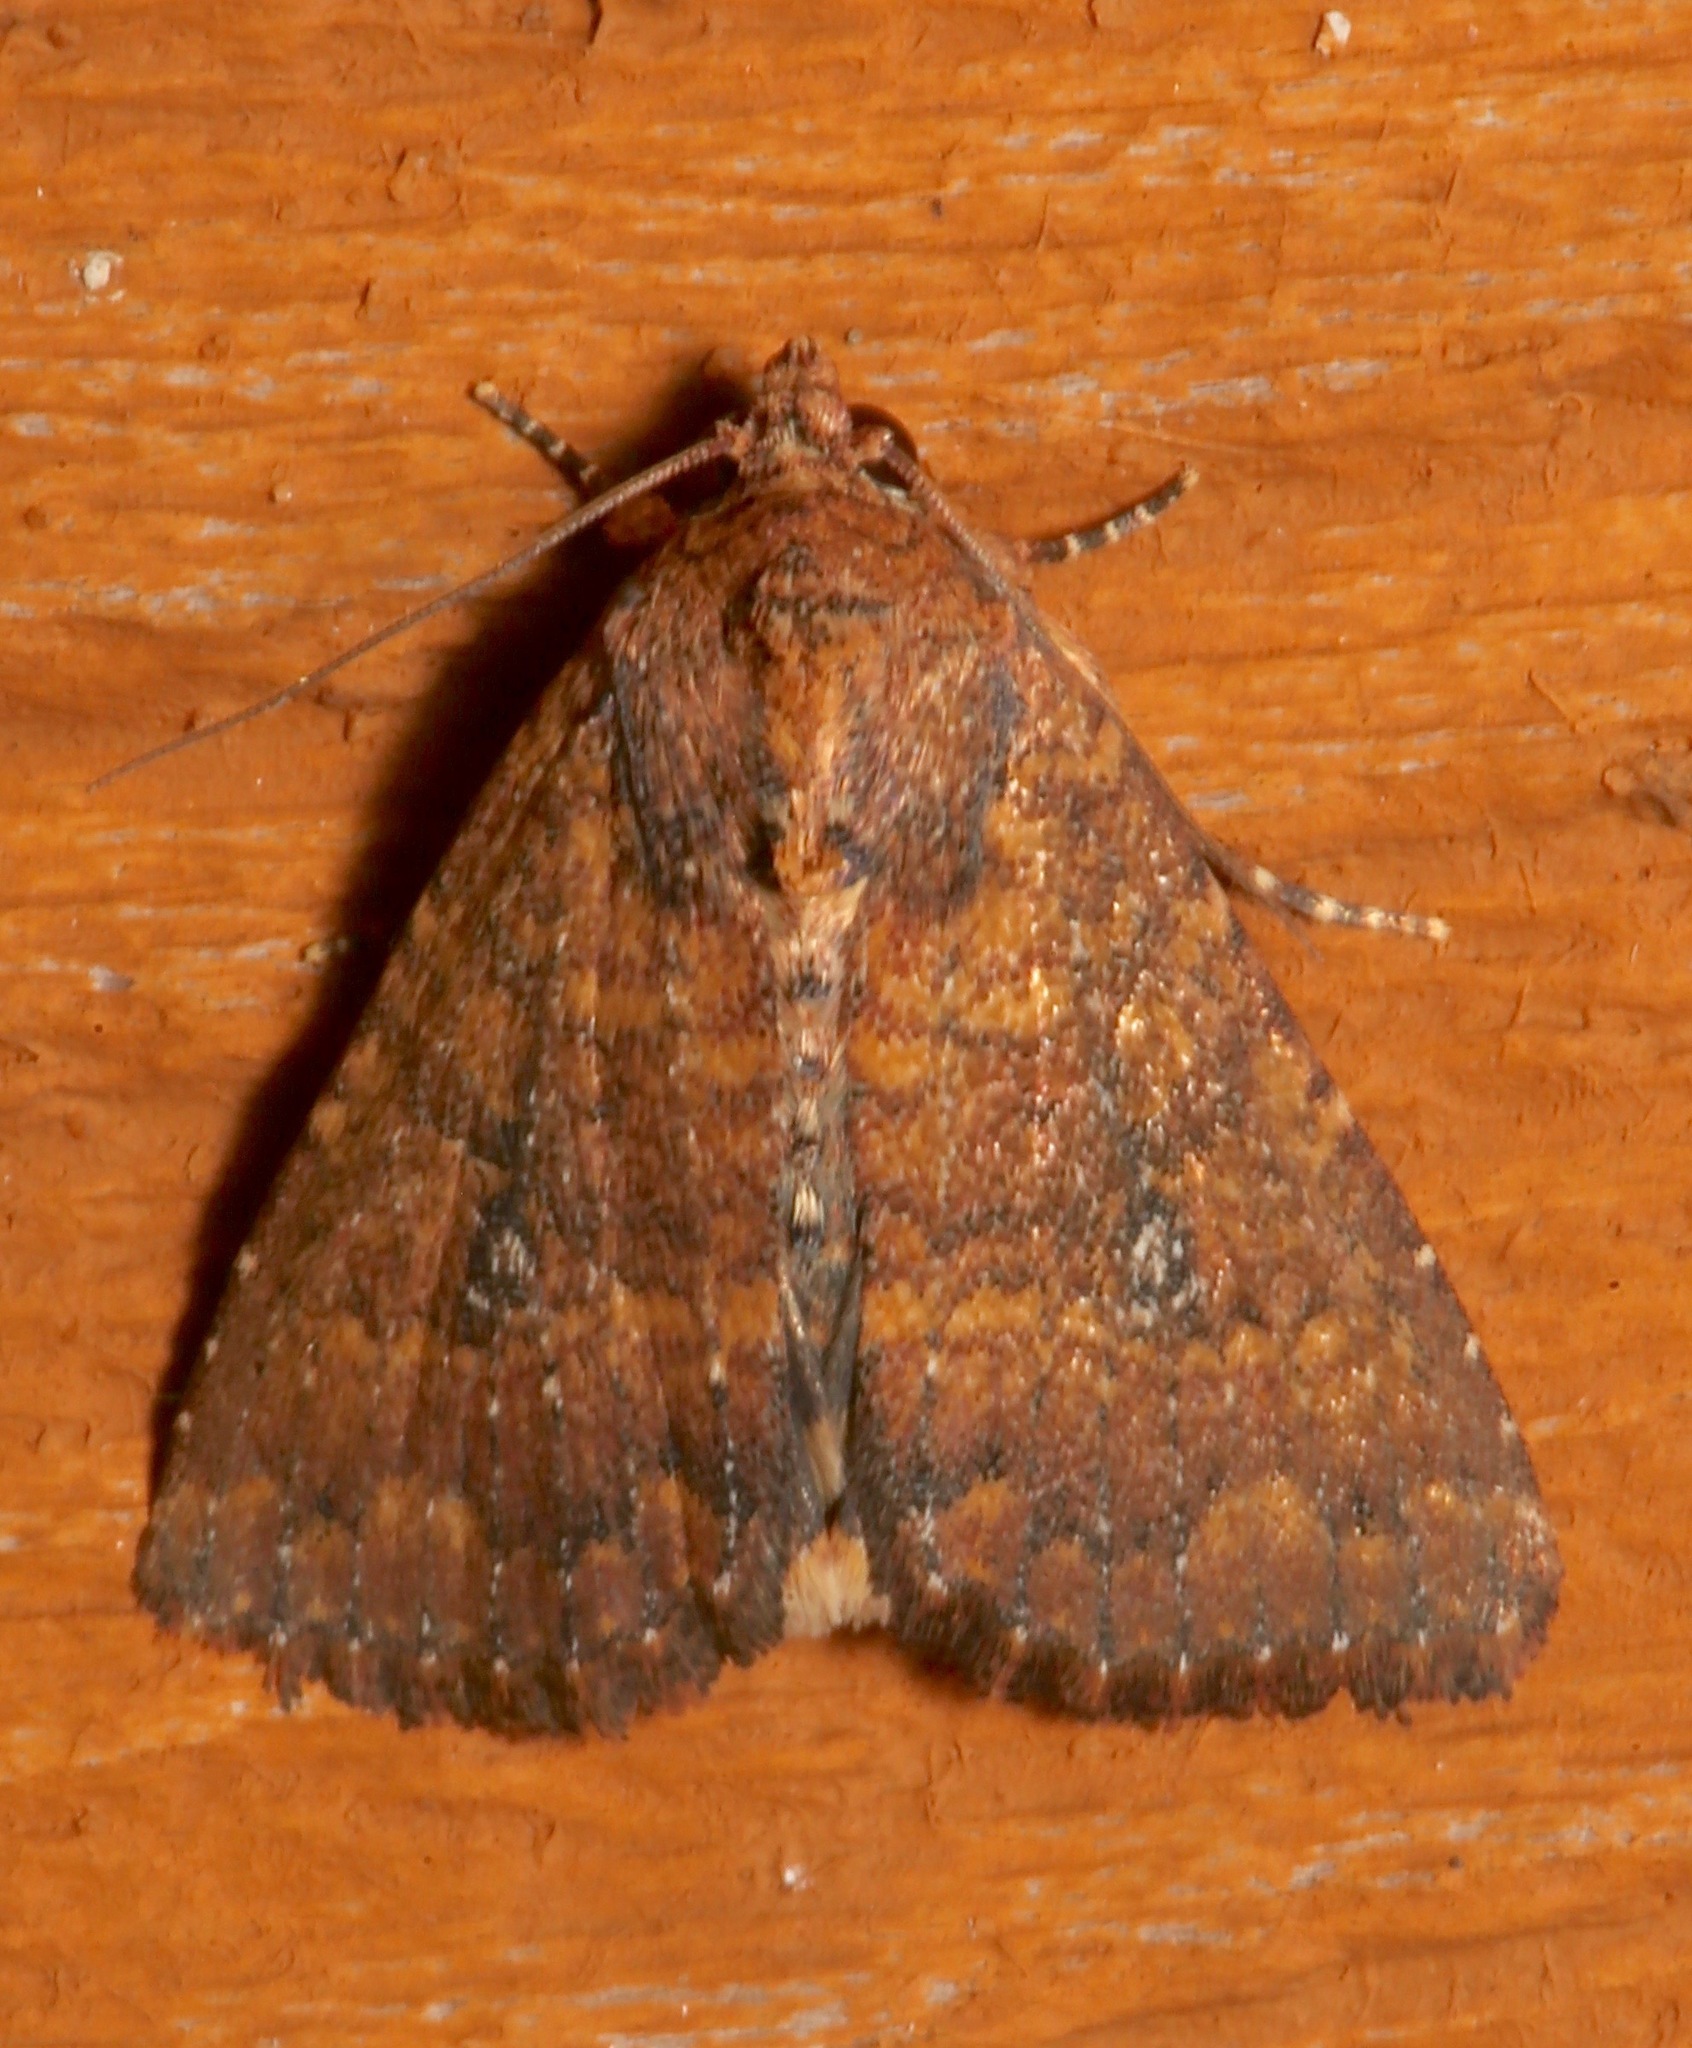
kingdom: Animalia
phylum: Arthropoda
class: Insecta
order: Lepidoptera
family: Noctuidae
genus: Condica
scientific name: Condica mobilis
